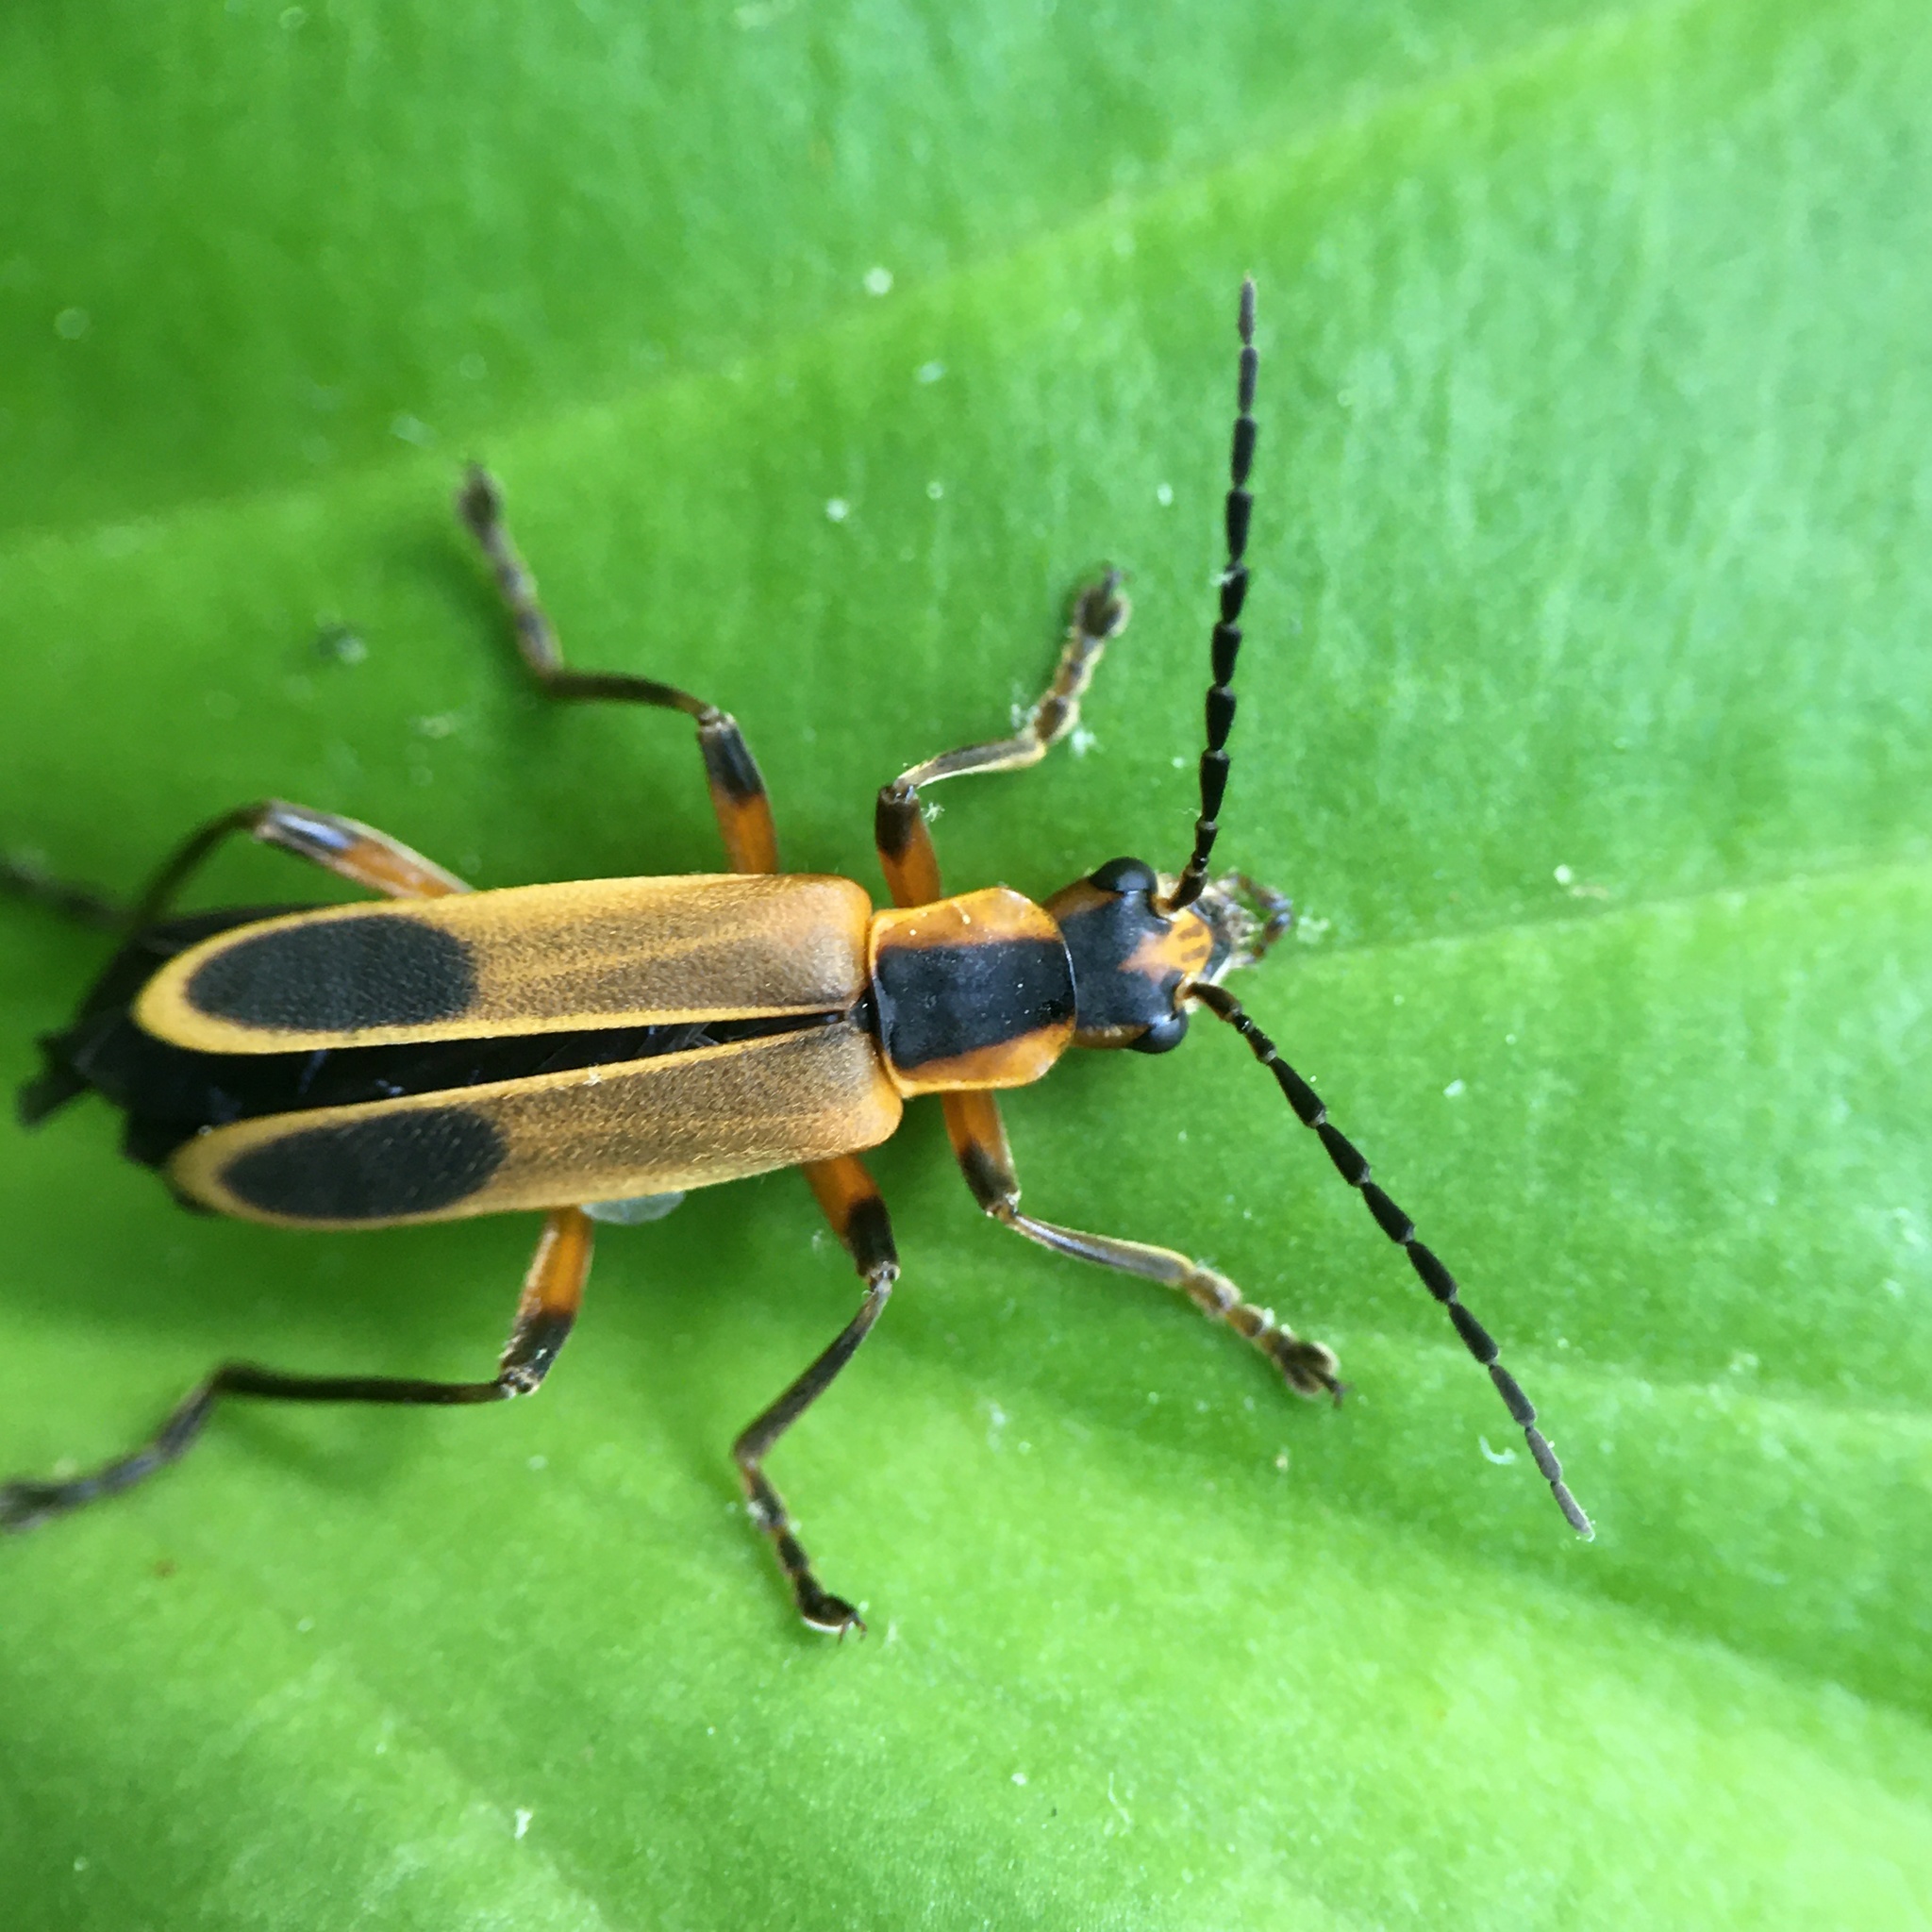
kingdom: Animalia
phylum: Arthropoda
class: Insecta
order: Coleoptera
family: Cantharidae
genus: Chauliognathus
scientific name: Chauliognathus marginatus
